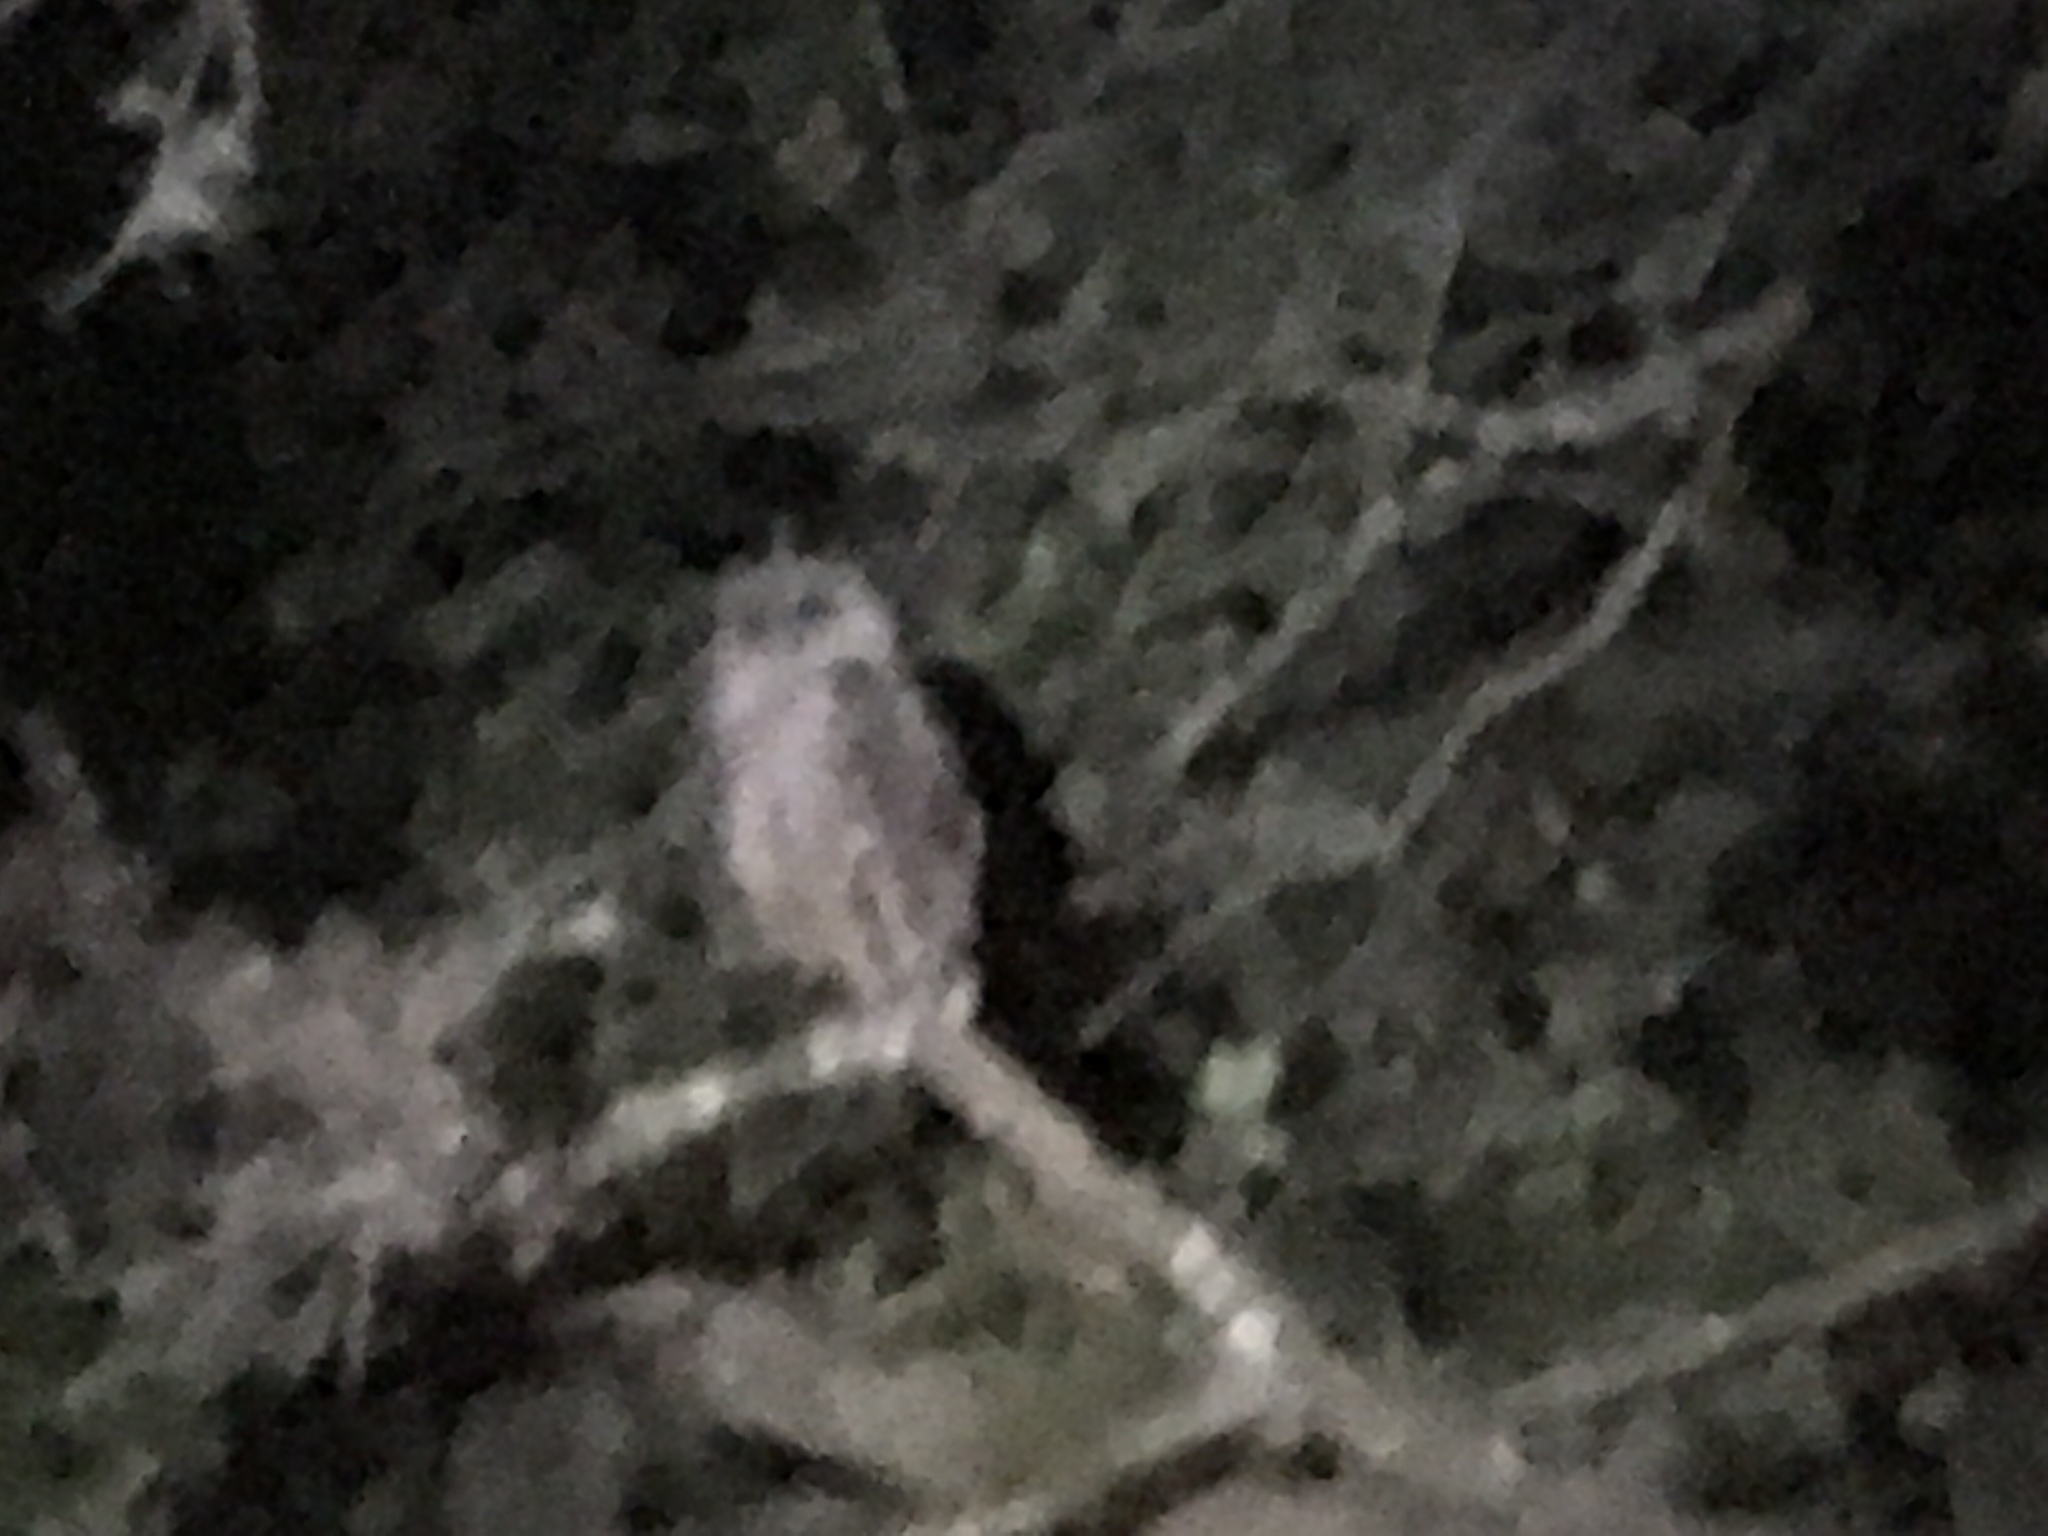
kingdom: Animalia
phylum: Chordata
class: Aves
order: Strigiformes
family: Strigidae
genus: Strix
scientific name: Strix varia
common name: Barred owl
